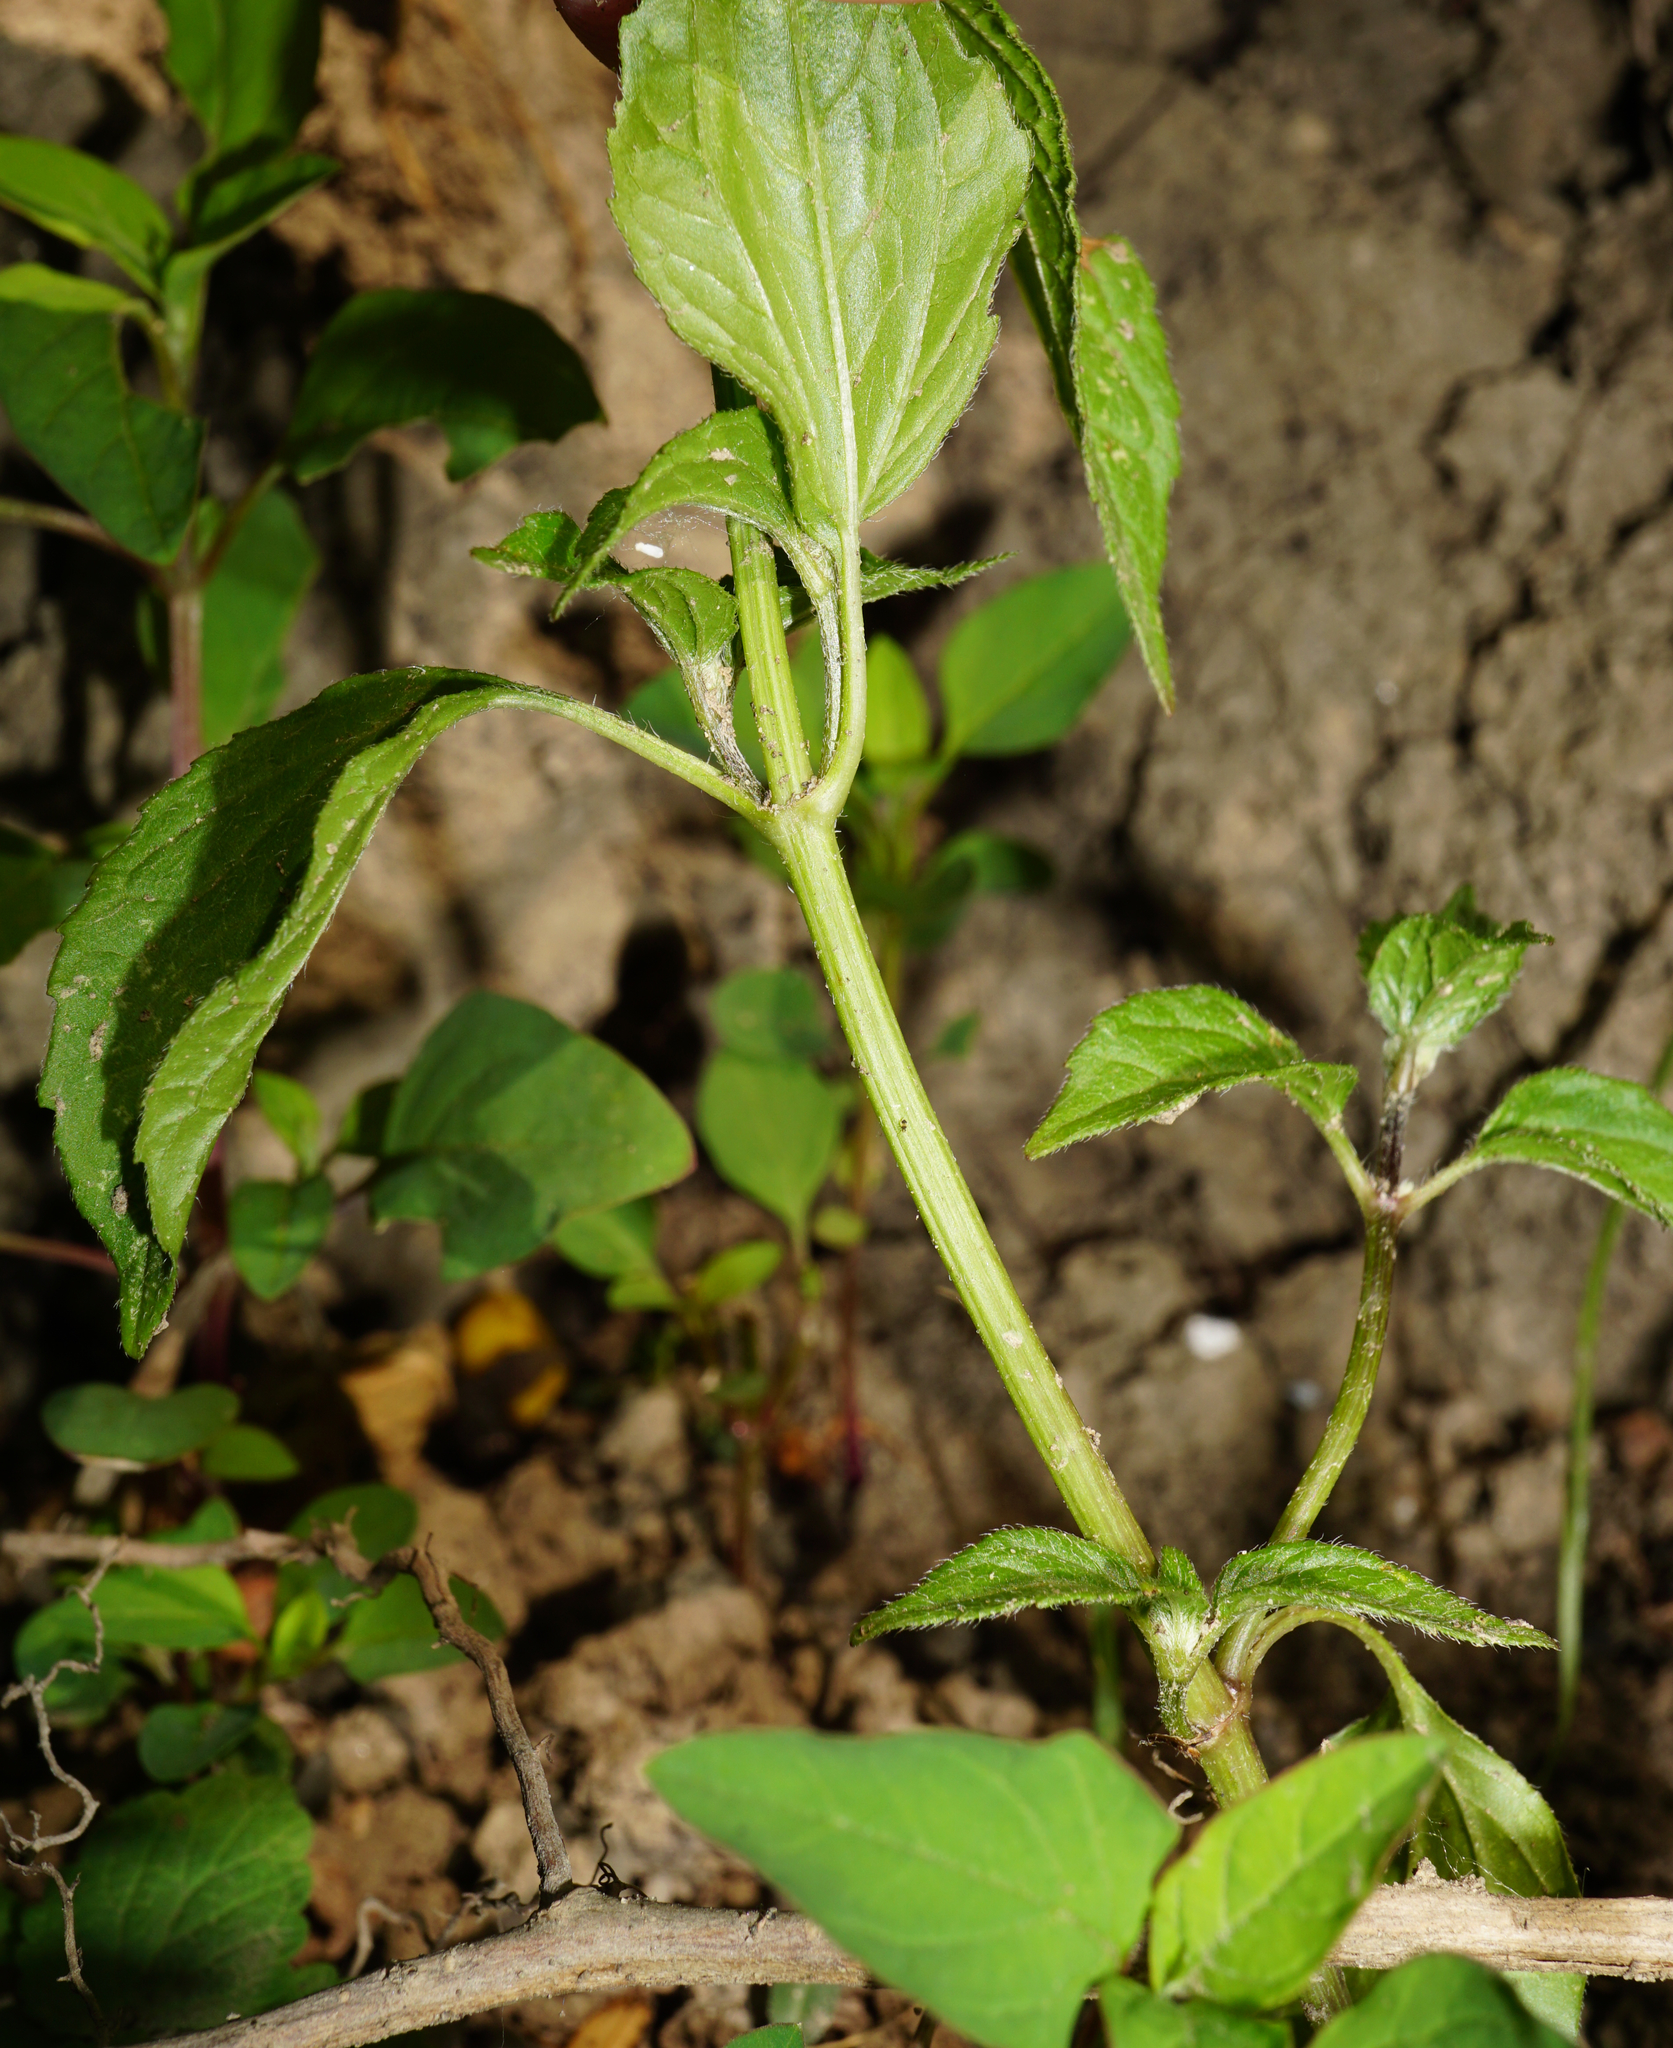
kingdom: Plantae
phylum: Tracheophyta
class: Magnoliopsida
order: Asterales
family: Asteraceae
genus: Galinsoga
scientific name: Galinsoga parviflora
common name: Gallant soldier
